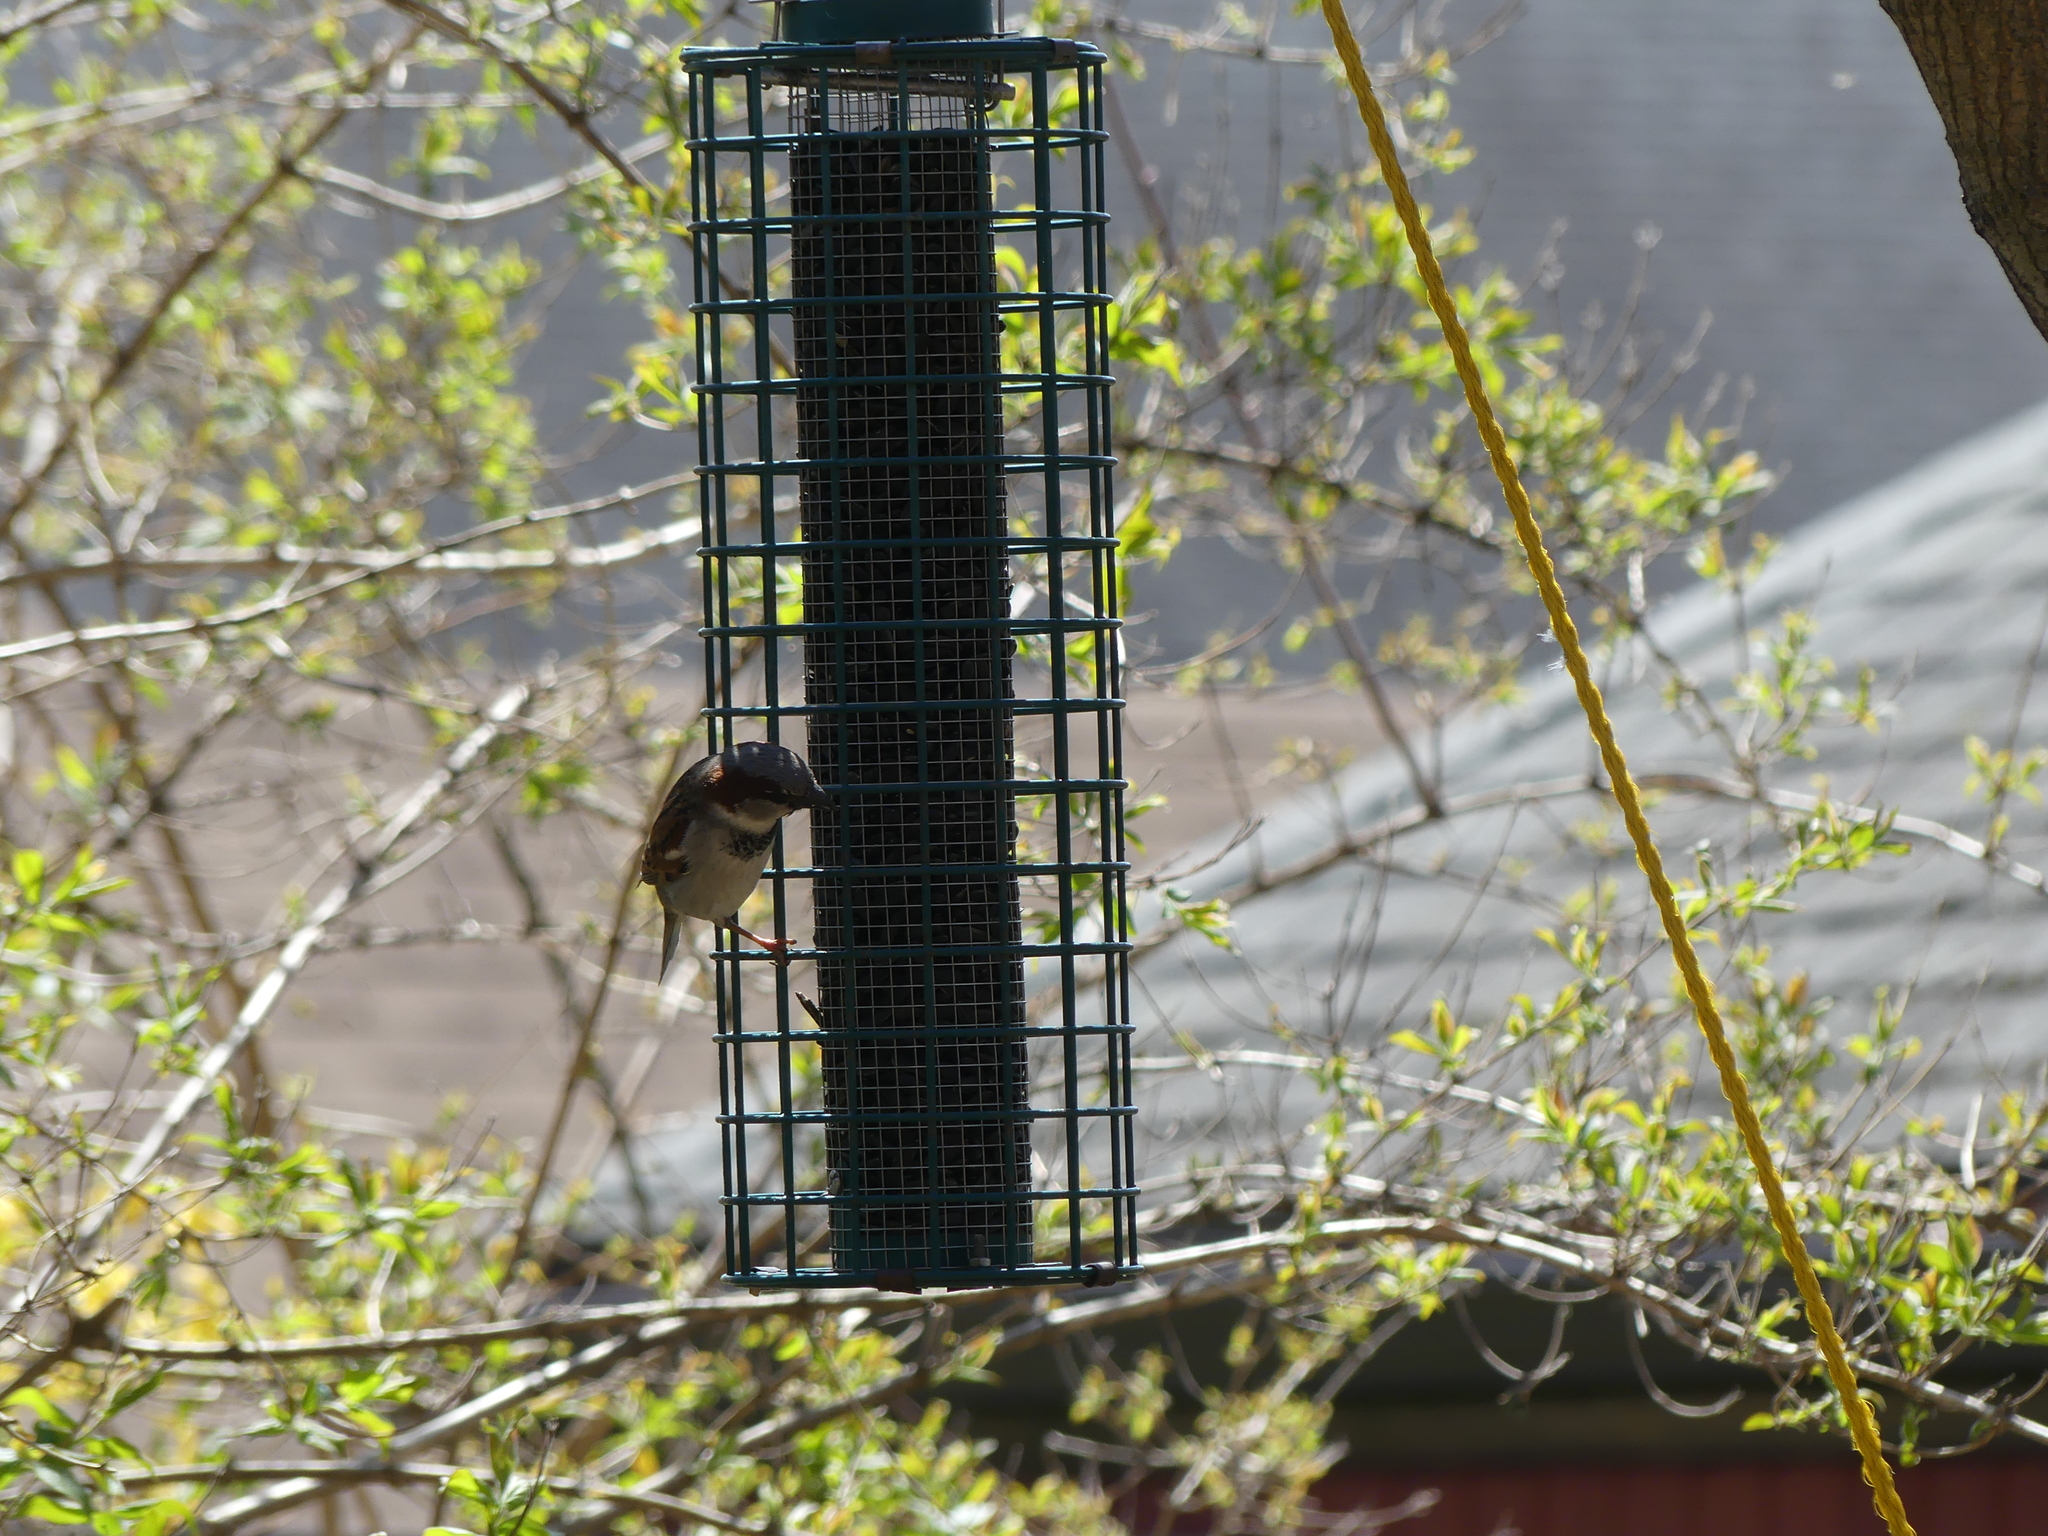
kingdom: Animalia
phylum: Chordata
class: Aves
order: Passeriformes
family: Passeridae
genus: Passer
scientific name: Passer domesticus
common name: House sparrow
